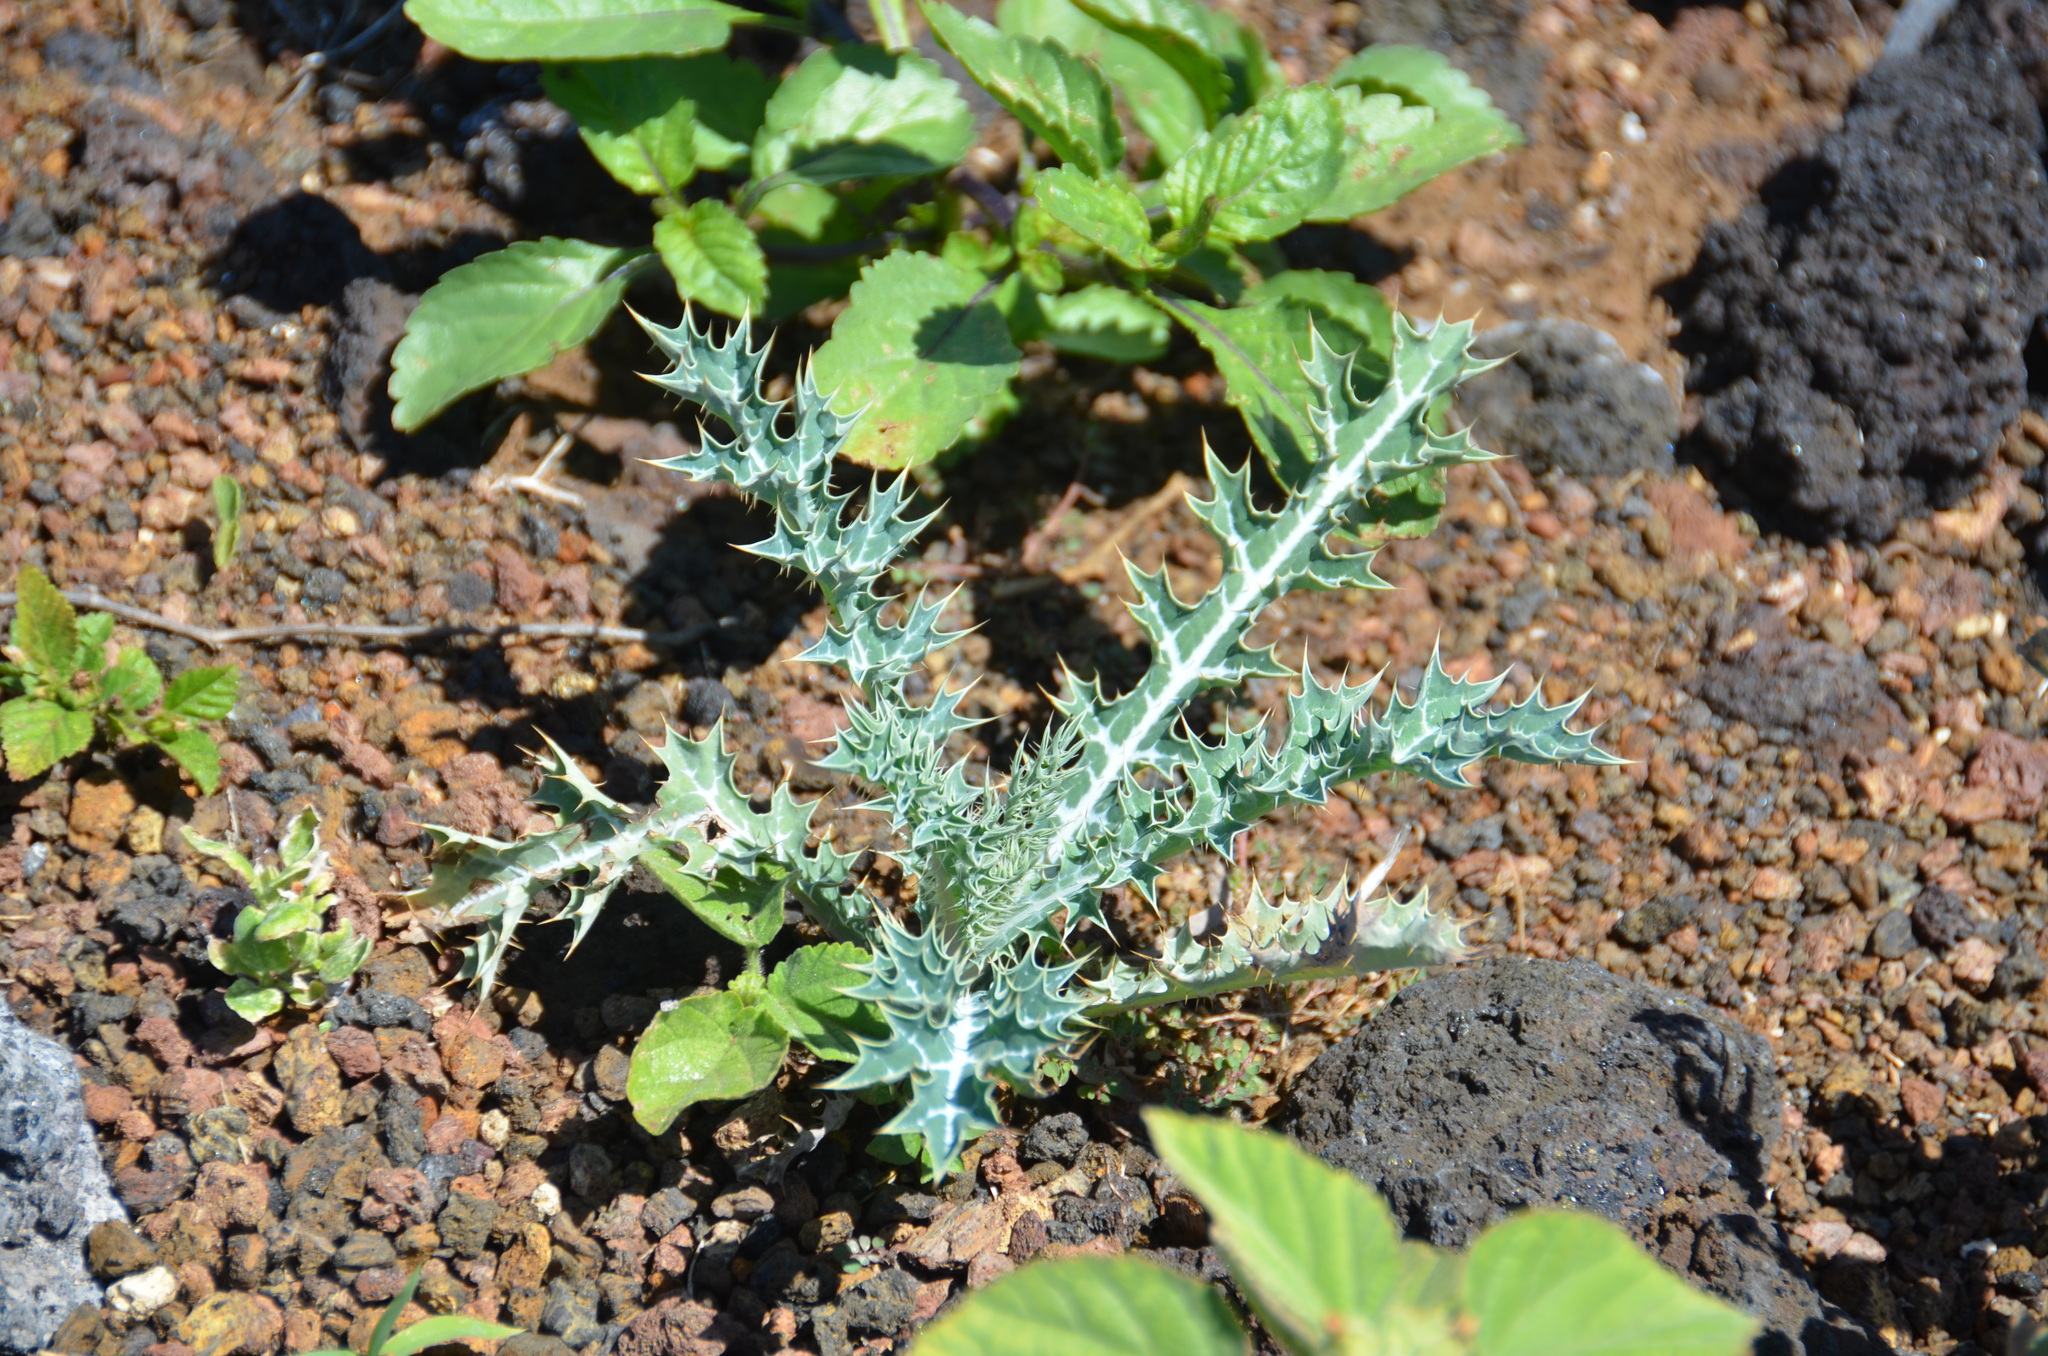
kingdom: Plantae
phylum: Tracheophyta
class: Magnoliopsida
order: Ranunculales
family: Papaveraceae
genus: Argemone
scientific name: Argemone mexicana
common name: Mexican poppy
